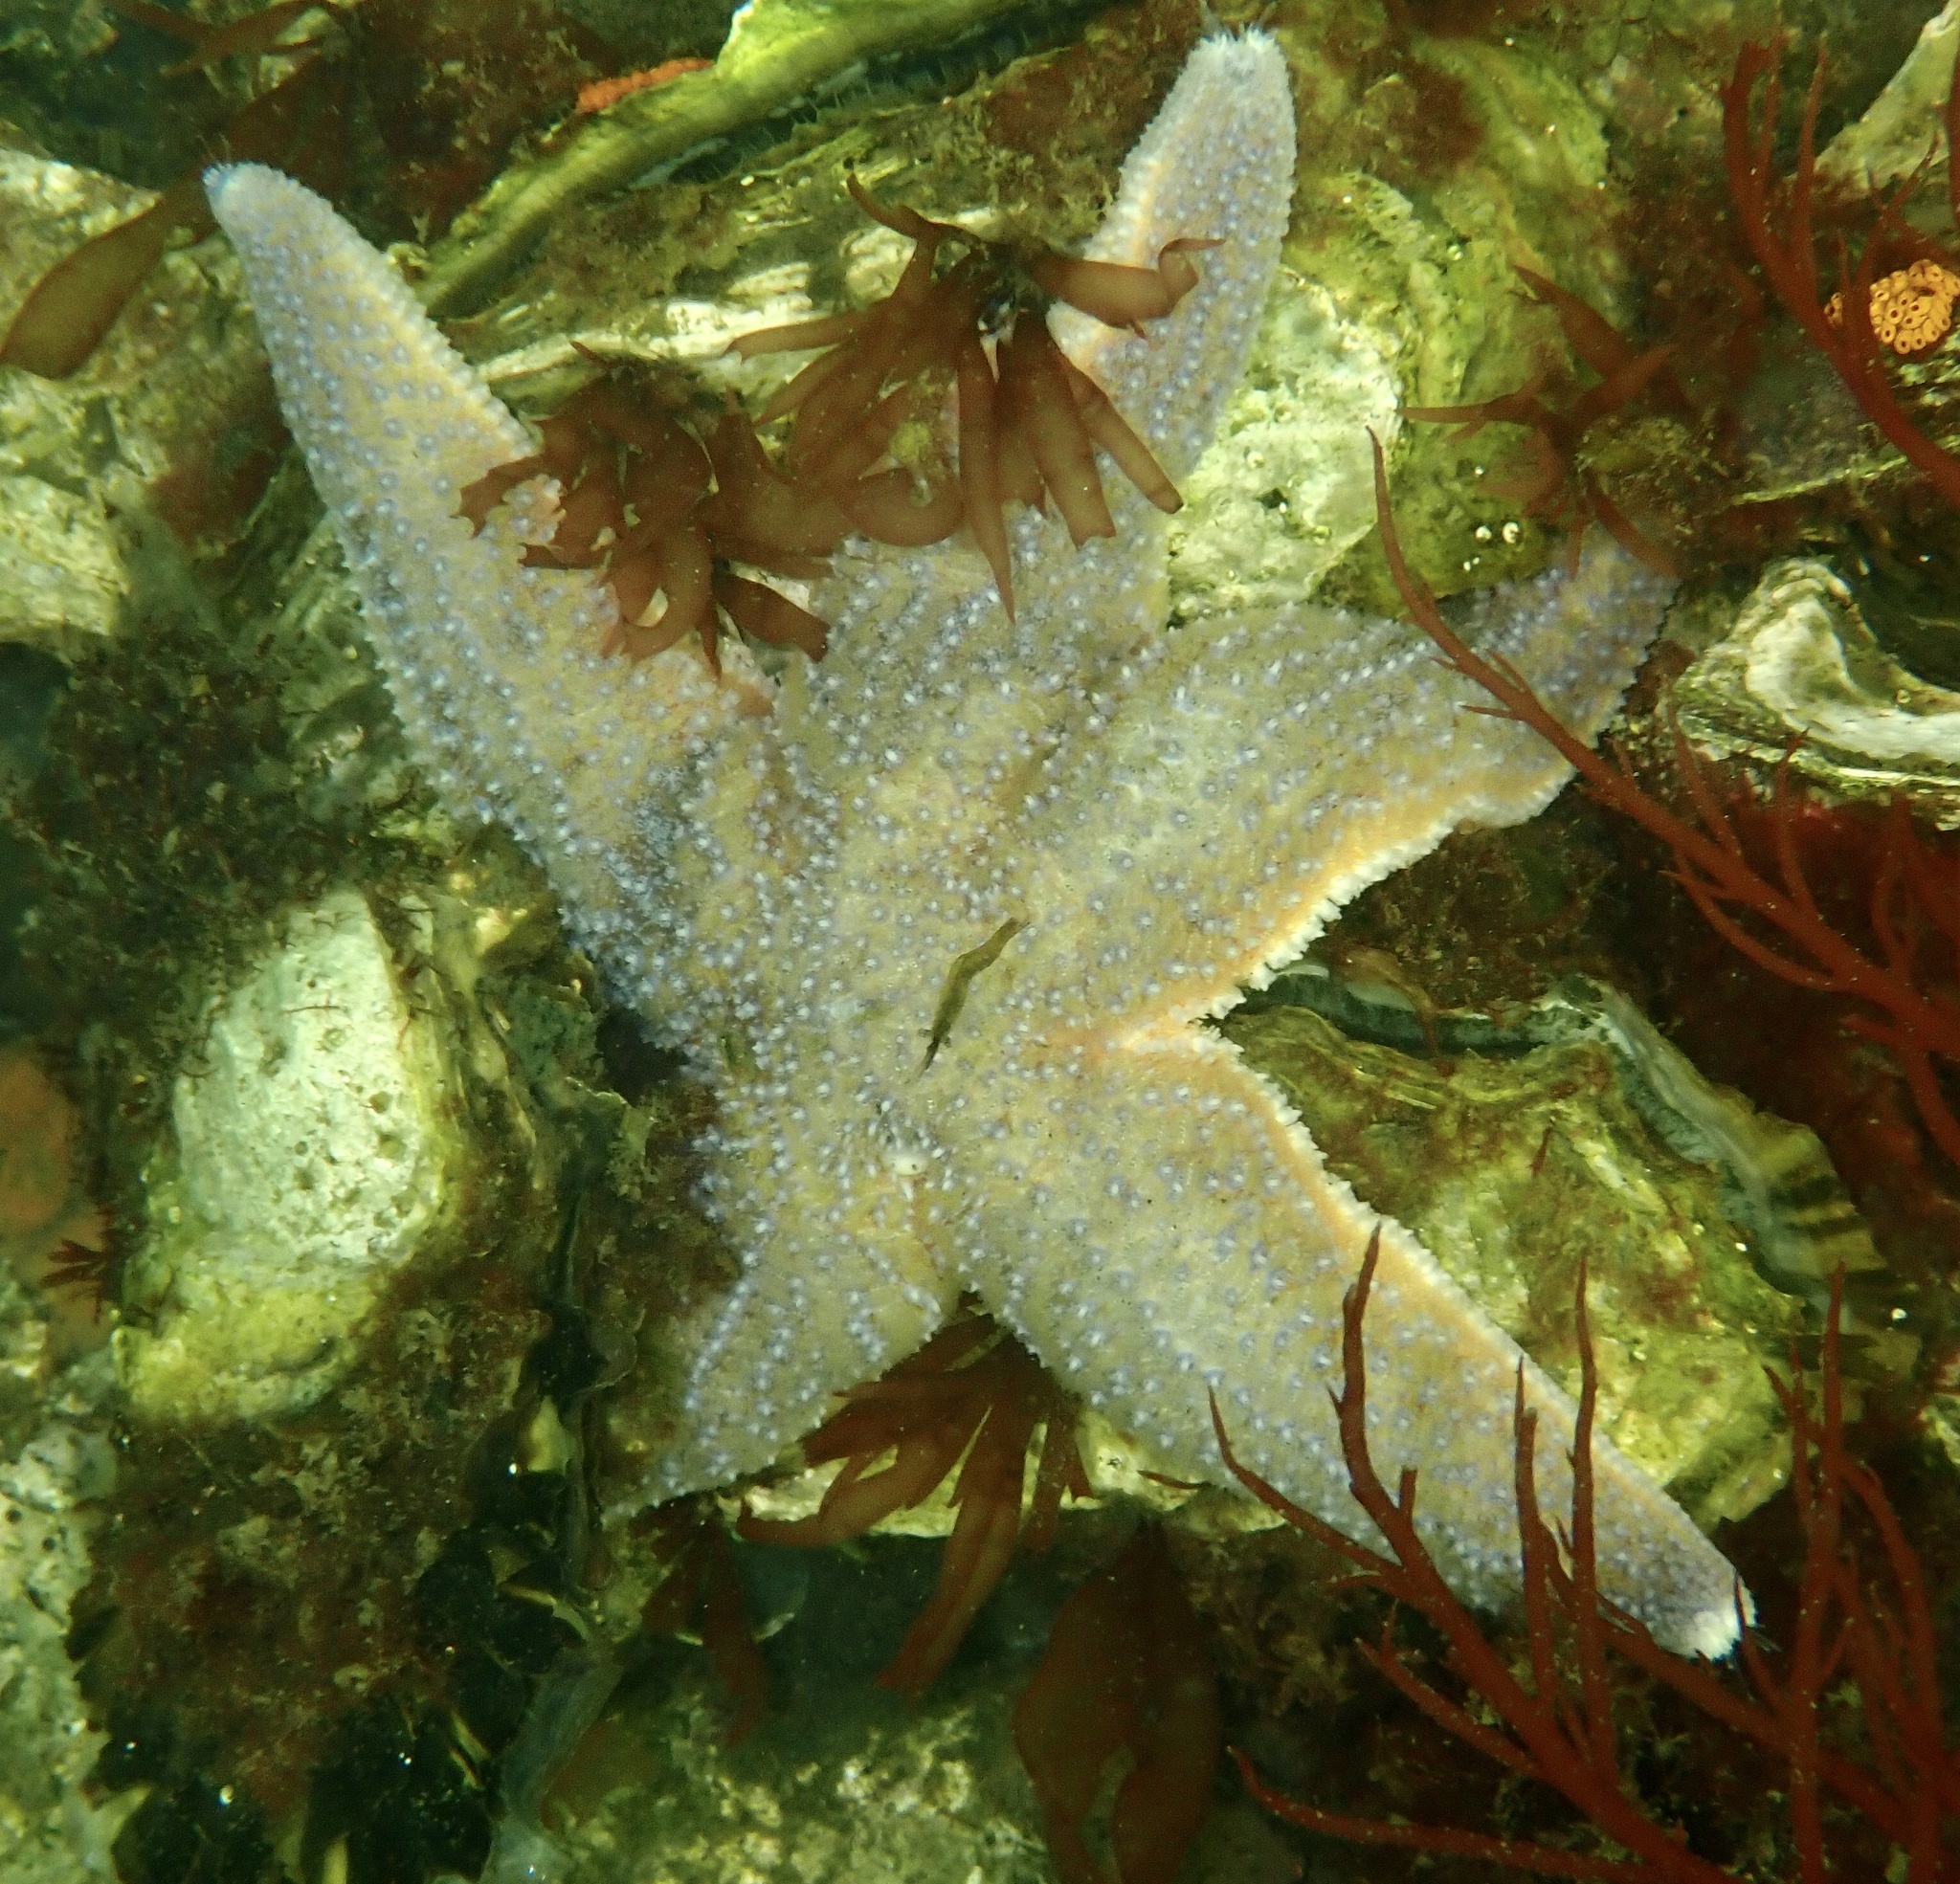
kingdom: Animalia
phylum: Echinodermata
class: Asteroidea
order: Forcipulatida
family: Asteriidae
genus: Asterias
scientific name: Asterias rubens
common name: Common starfish
